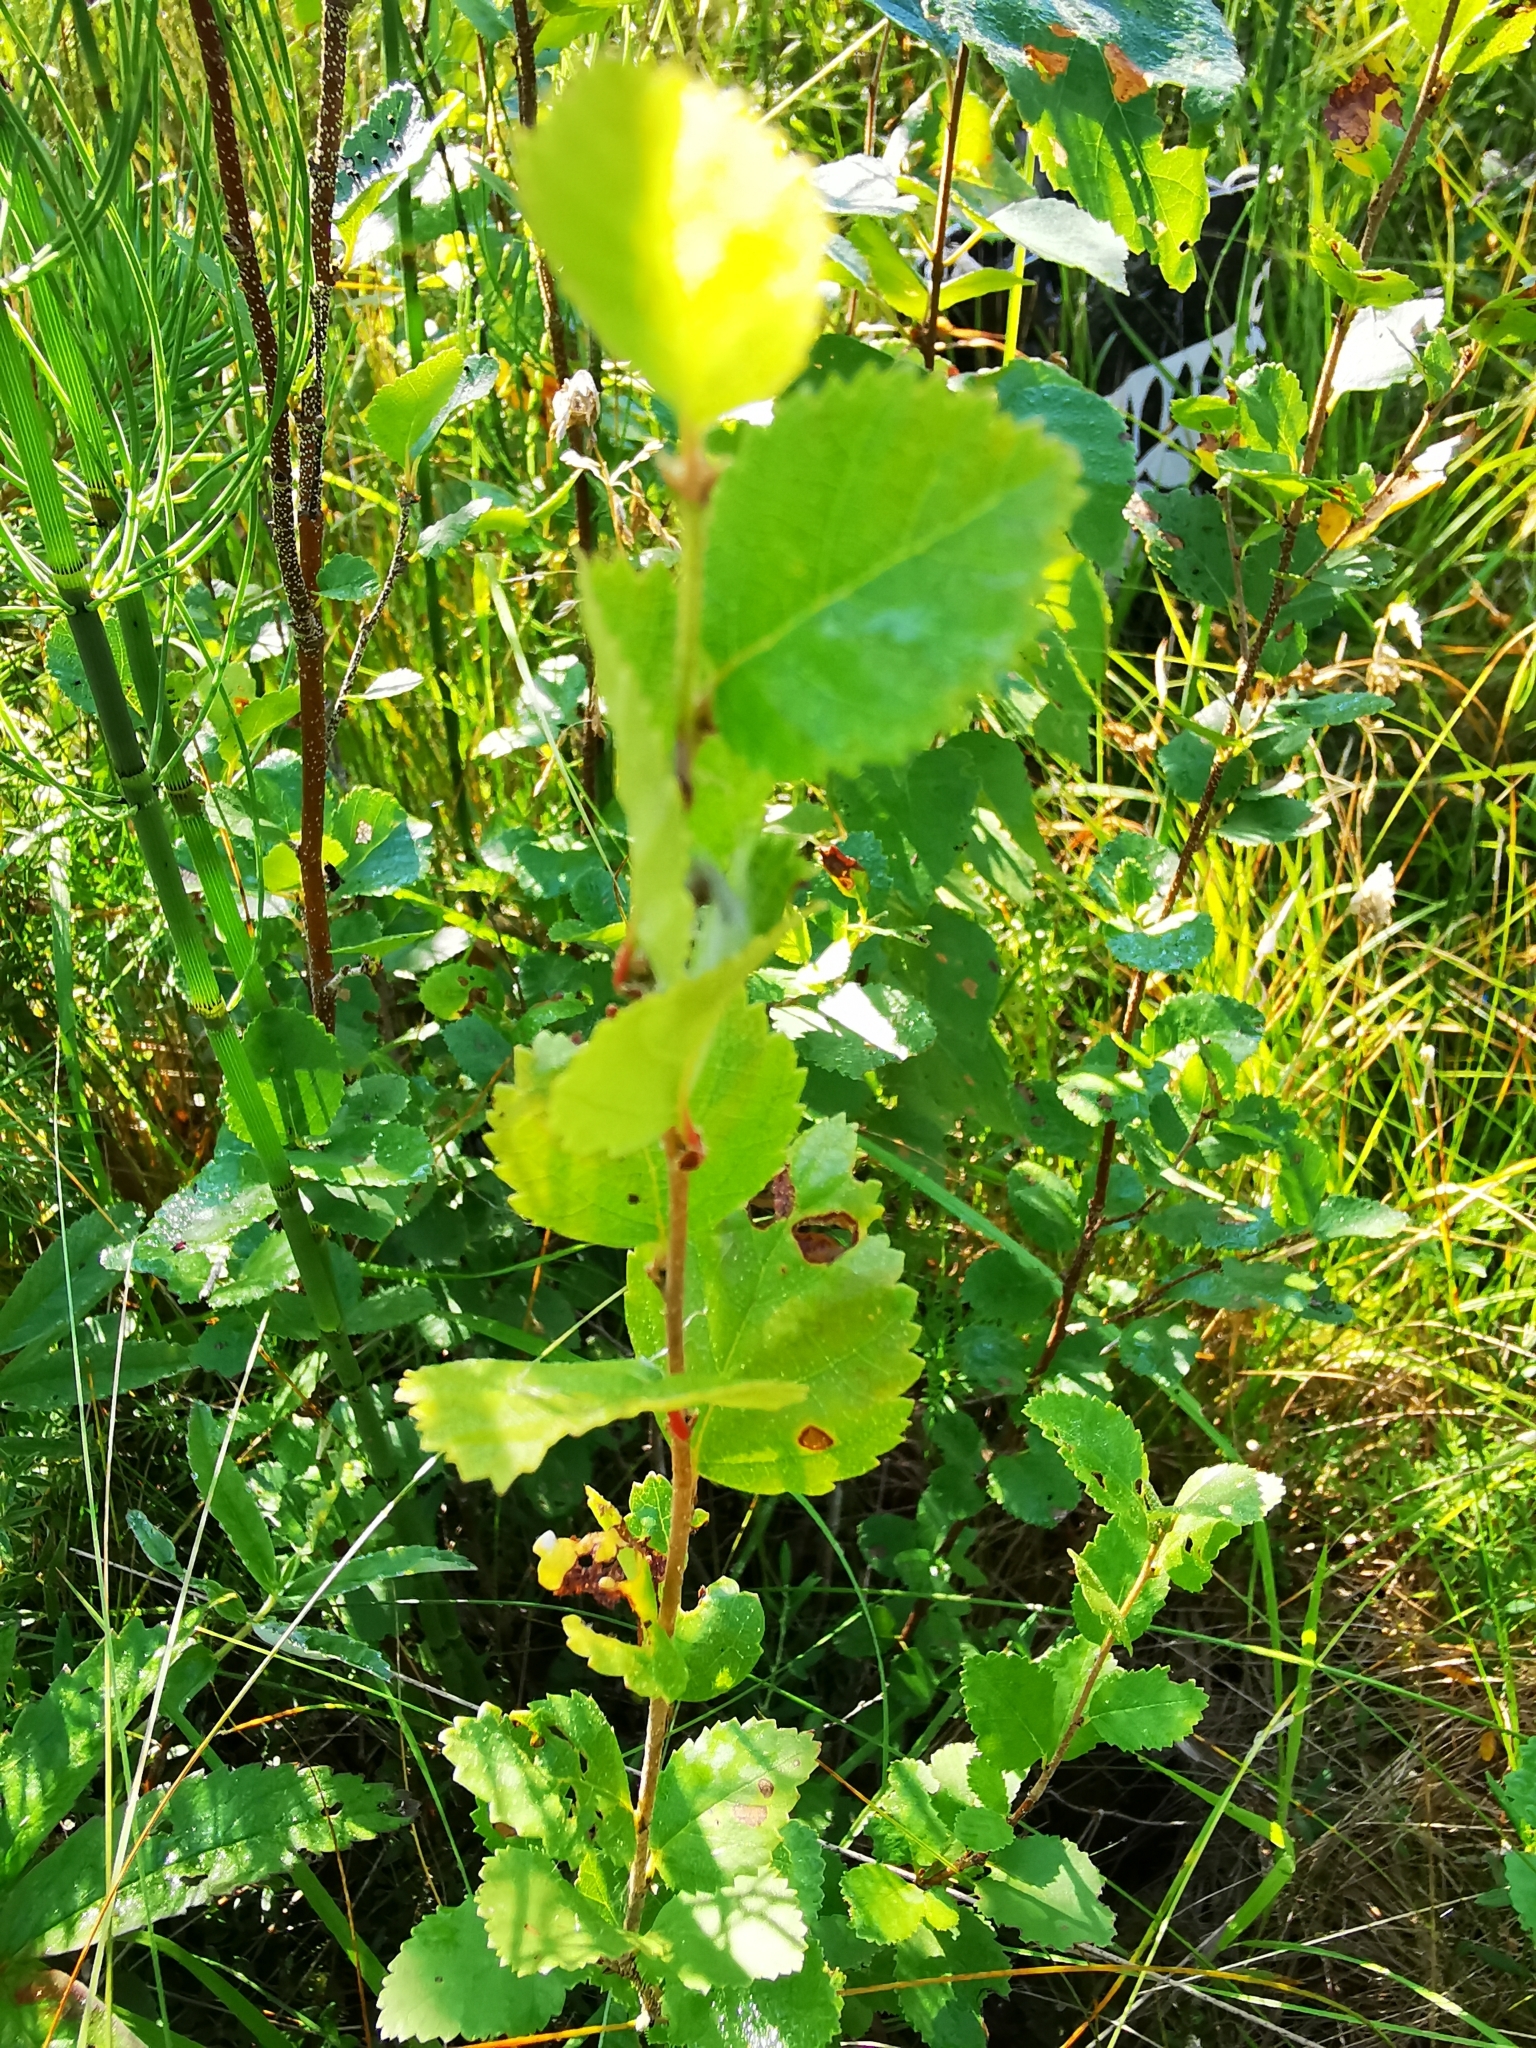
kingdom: Plantae
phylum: Tracheophyta
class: Magnoliopsida
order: Fagales
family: Betulaceae
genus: Betula
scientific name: Betula humilis
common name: Shrubby birch
